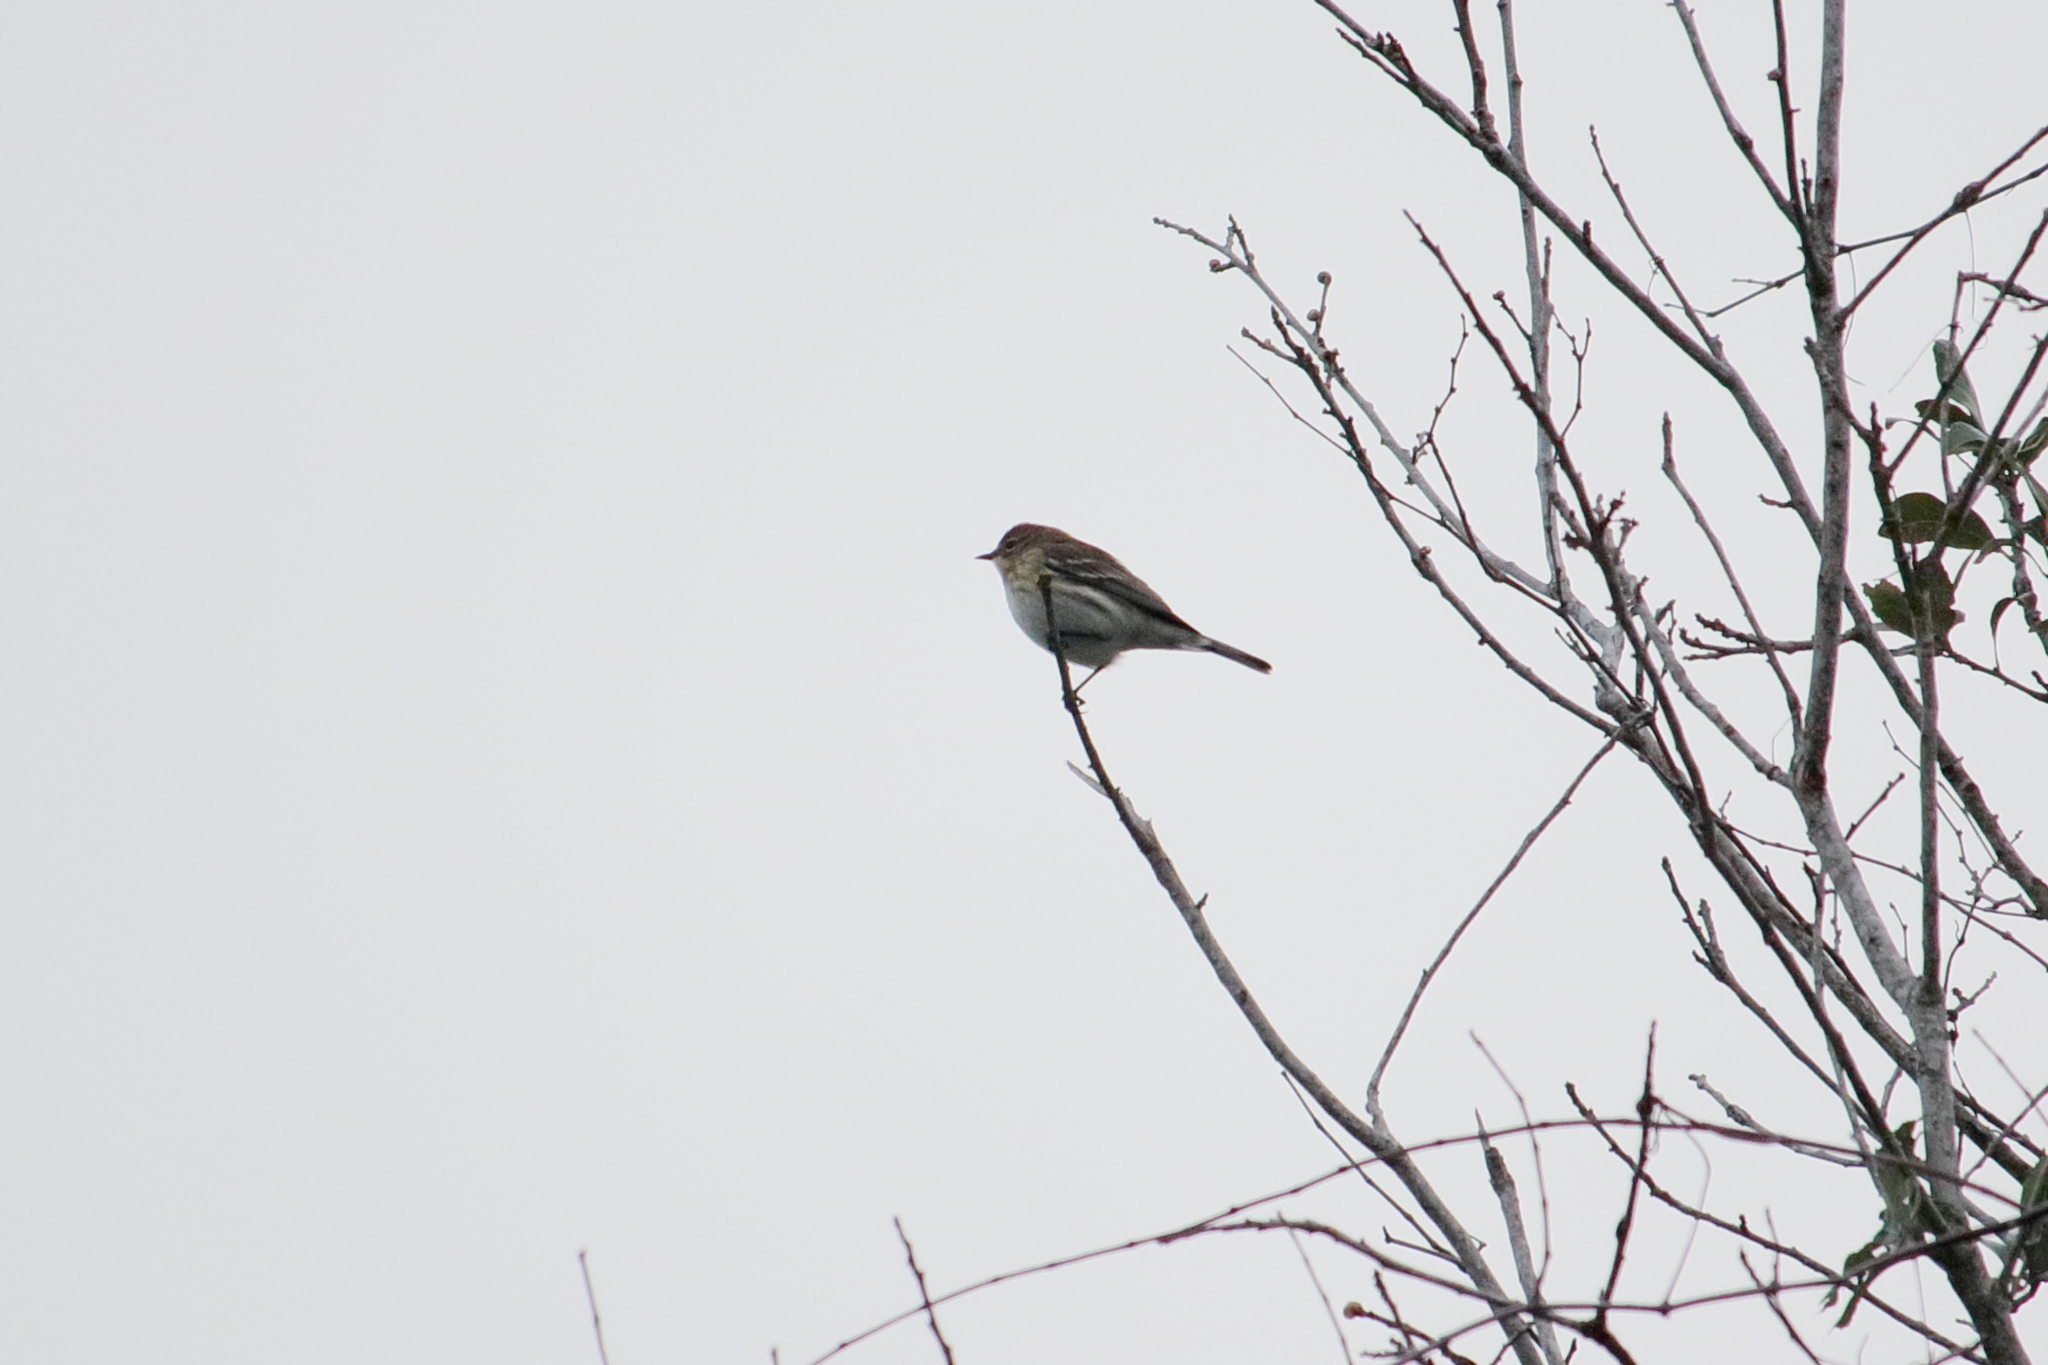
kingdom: Animalia
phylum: Chordata
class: Aves
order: Passeriformes
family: Parulidae
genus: Setophaga
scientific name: Setophaga coronata
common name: Myrtle warbler
